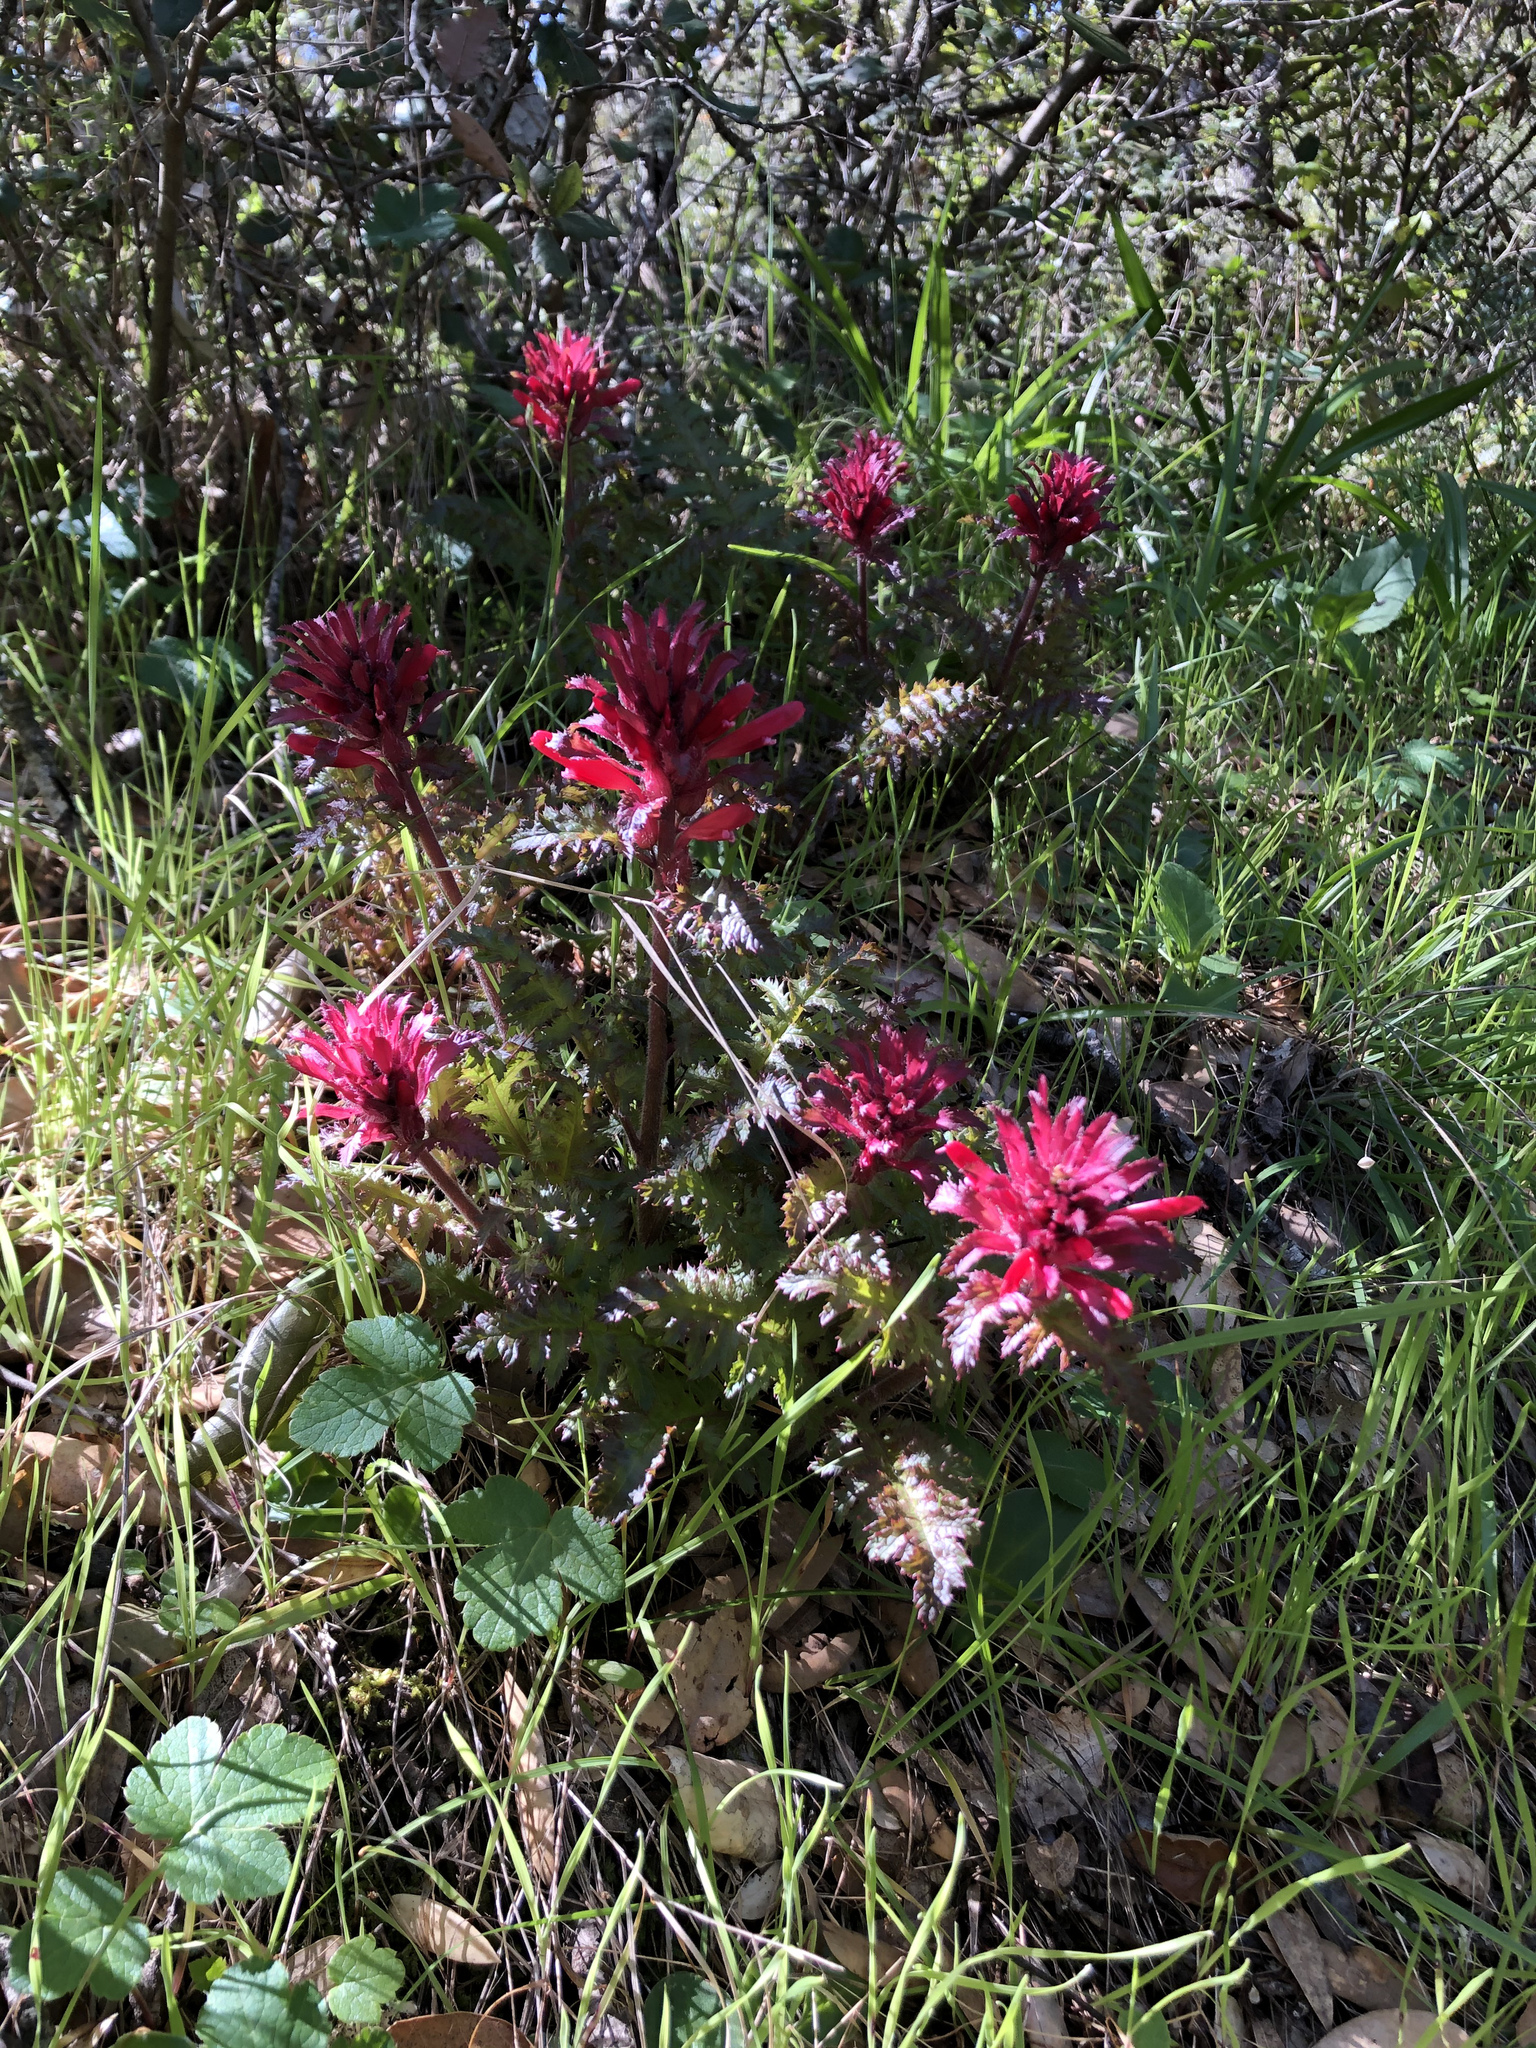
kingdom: Plantae
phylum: Tracheophyta
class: Magnoliopsida
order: Lamiales
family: Orobanchaceae
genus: Pedicularis
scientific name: Pedicularis densiflora
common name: Indian warrior
